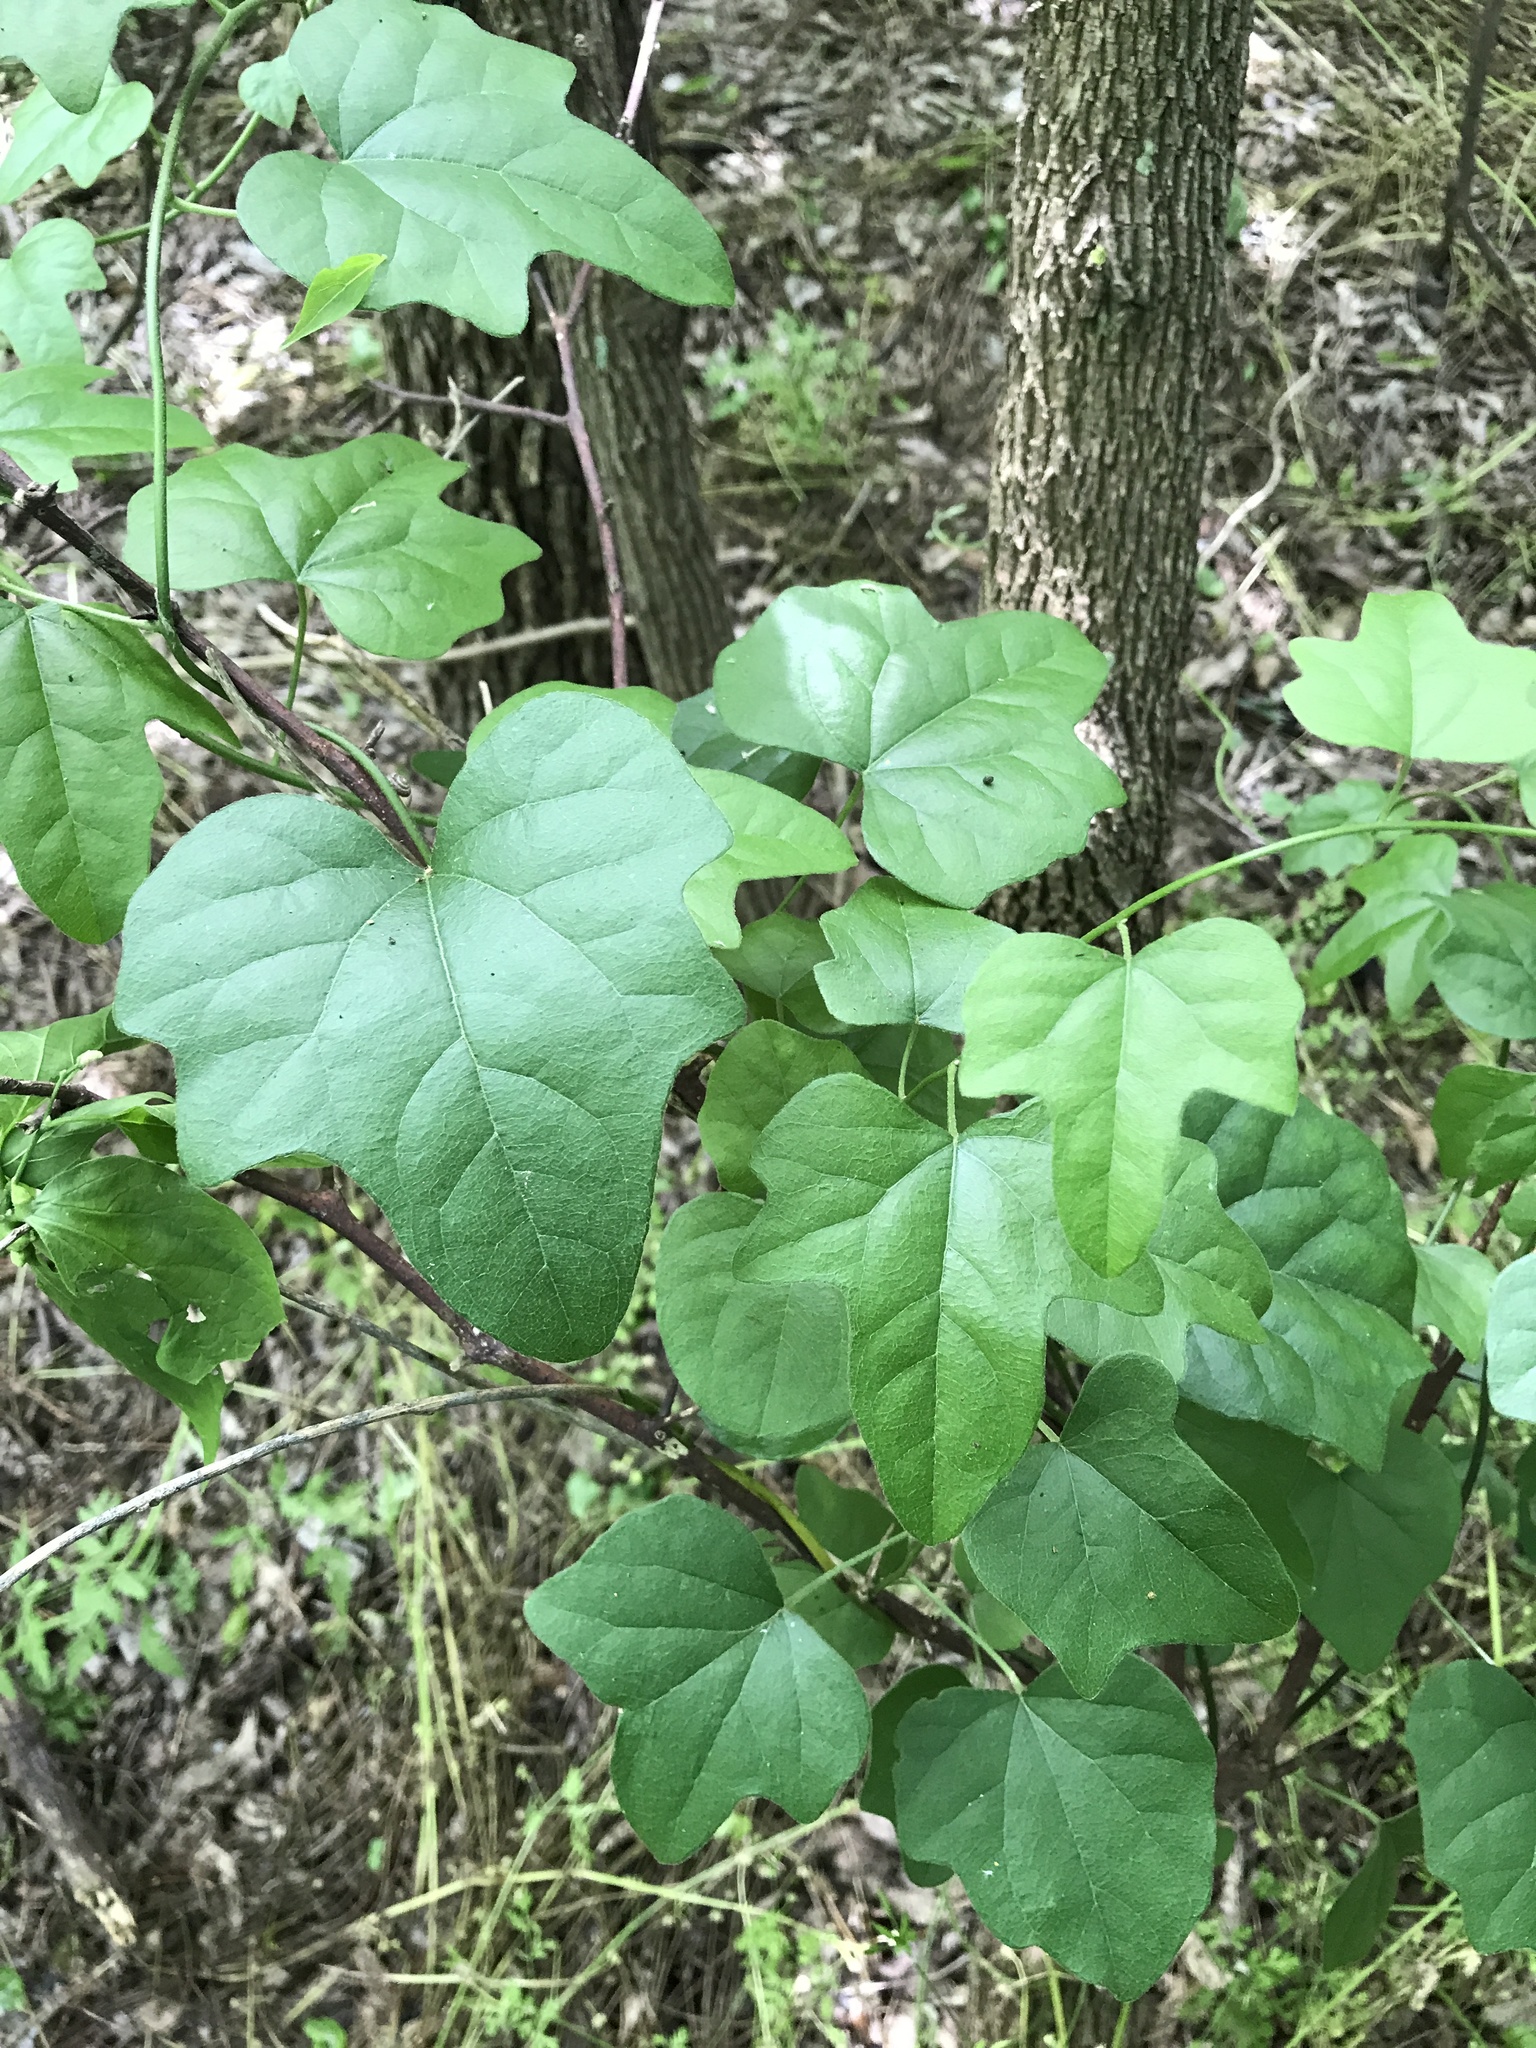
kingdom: Plantae
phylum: Tracheophyta
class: Magnoliopsida
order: Ranunculales
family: Menispermaceae
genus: Cocculus
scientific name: Cocculus carolinus
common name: Carolina moonseed
